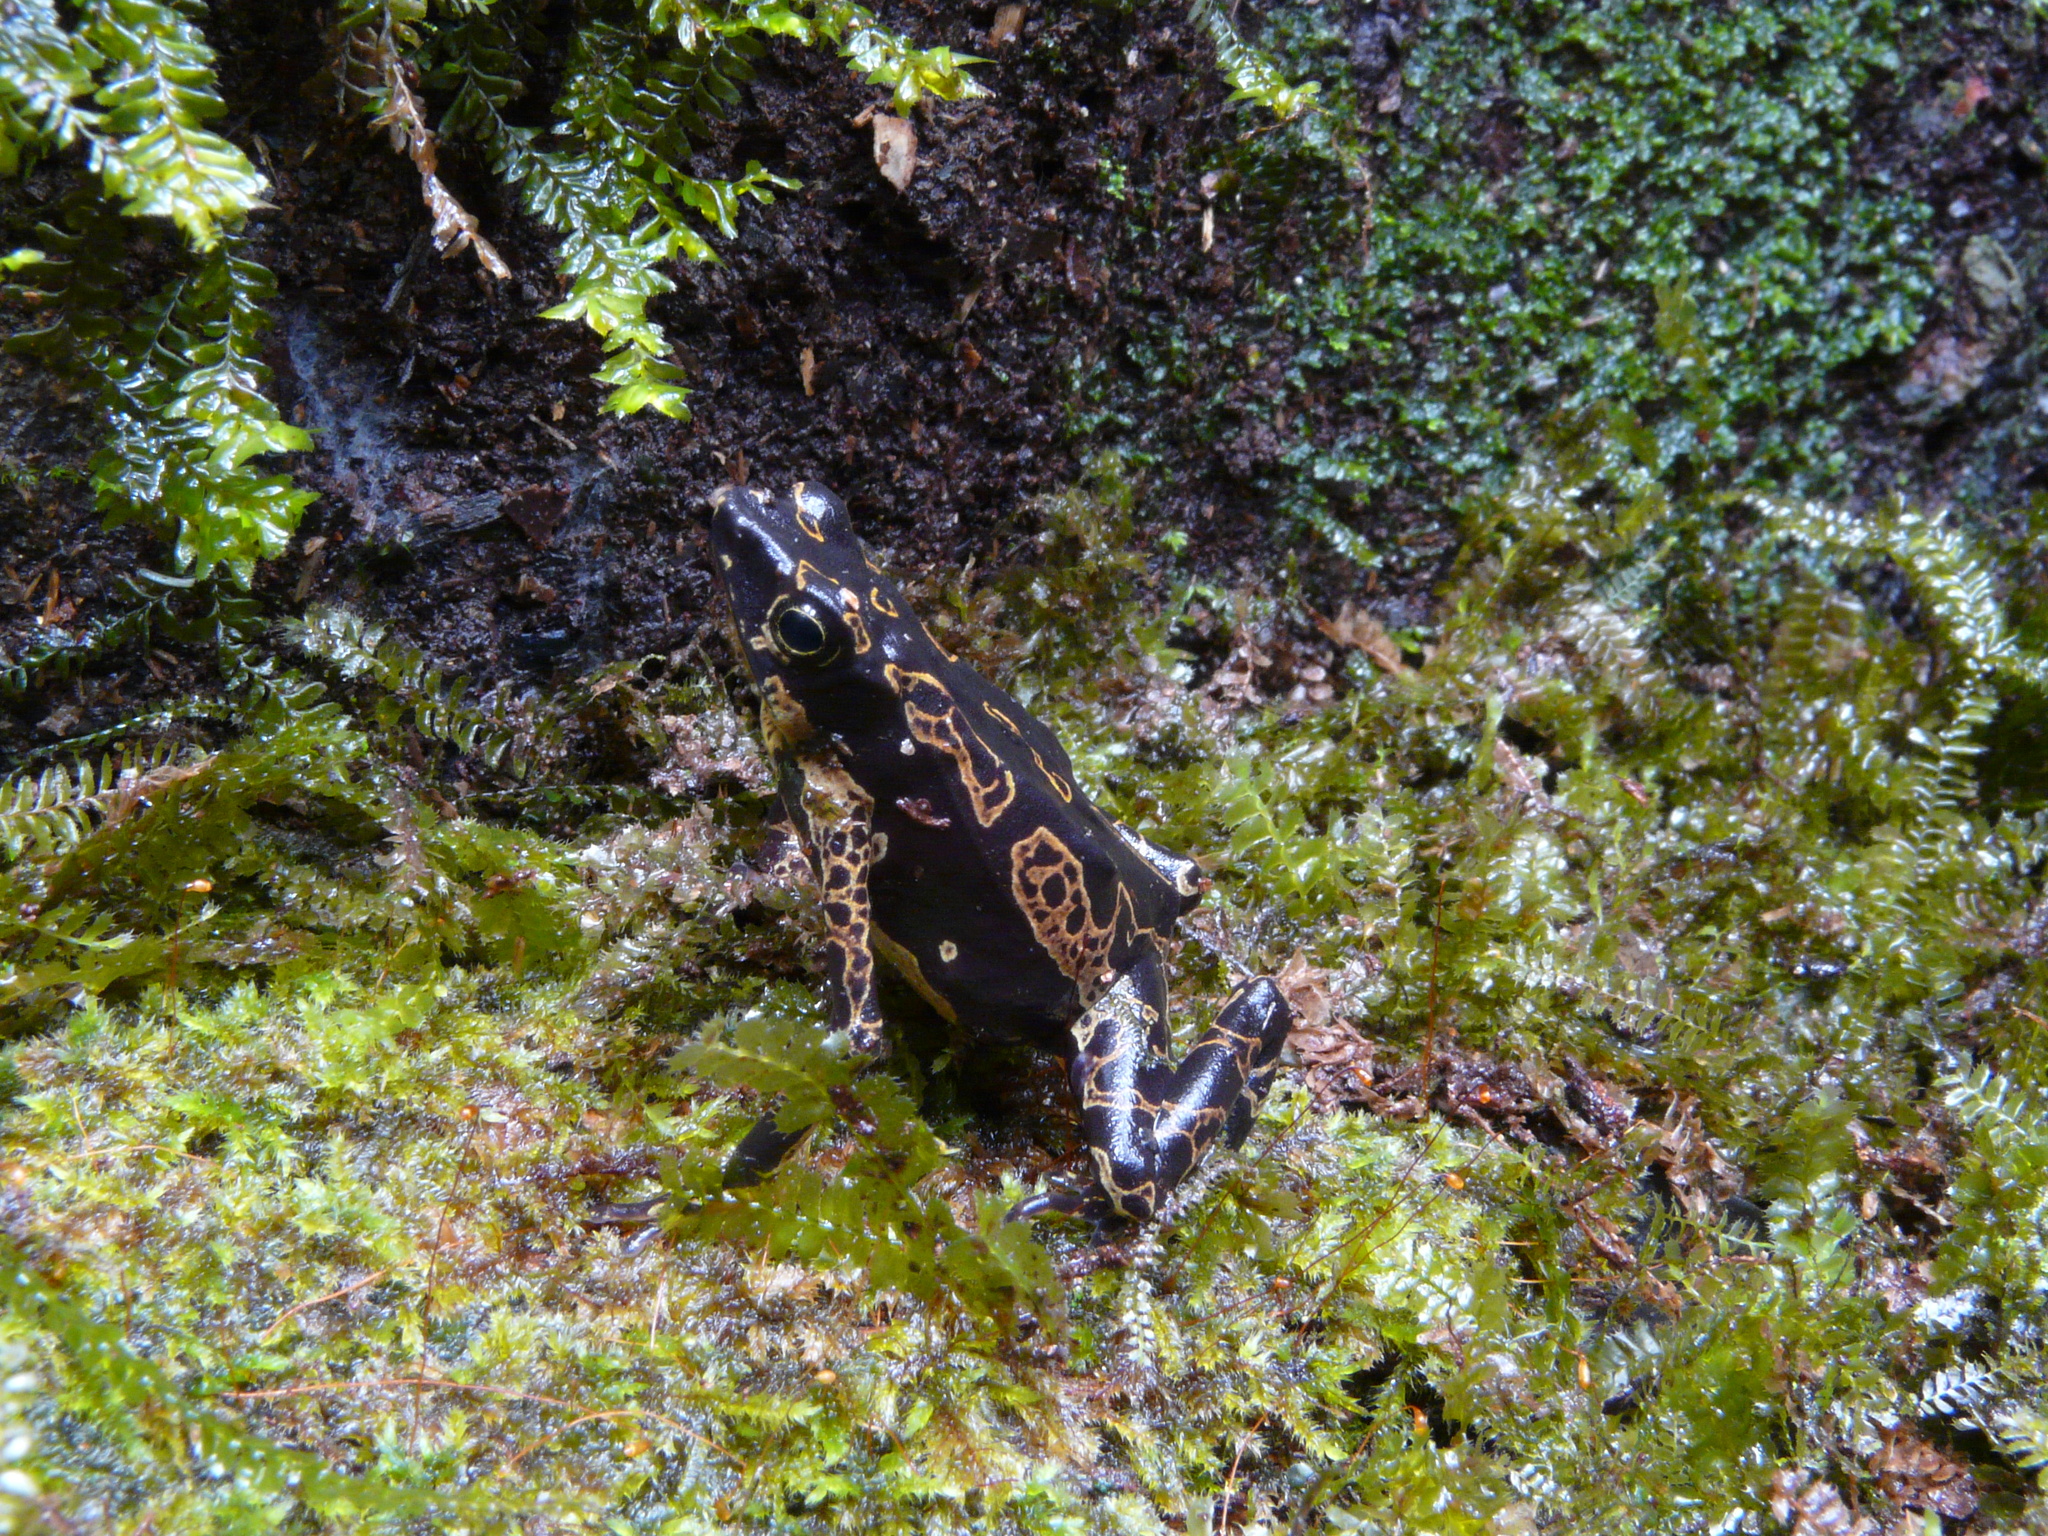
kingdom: Animalia
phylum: Chordata
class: Amphibia
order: Anura
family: Bufonidae
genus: Atelopus
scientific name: Atelopus hoogmoedi
